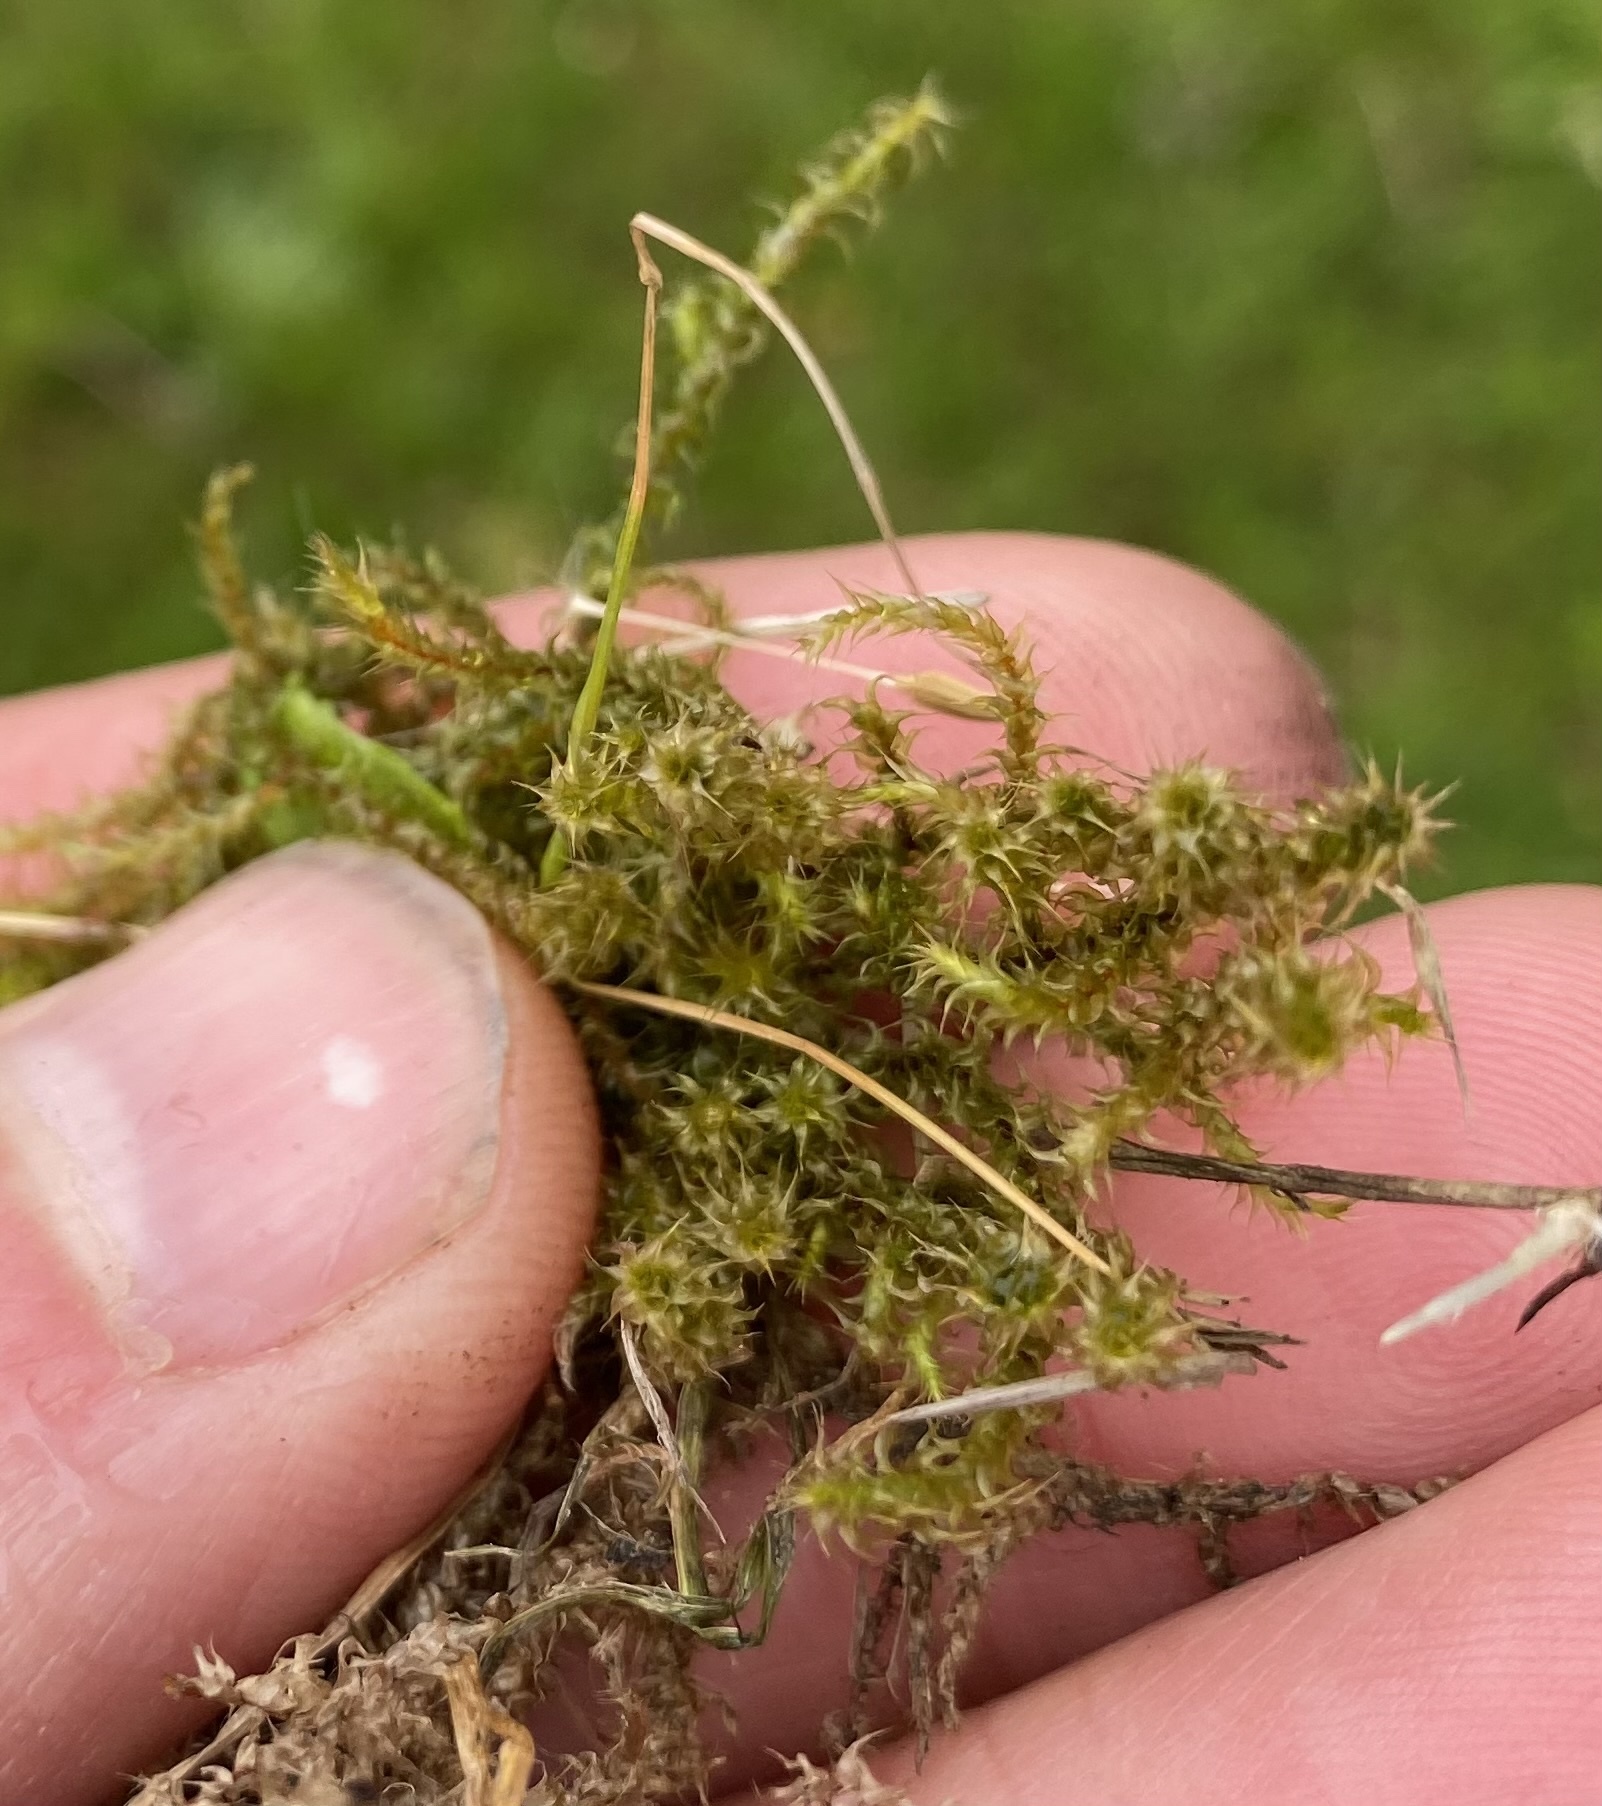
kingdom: Plantae
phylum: Bryophyta
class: Bryopsida
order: Hypnales
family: Hylocomiaceae
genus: Rhytidiadelphus
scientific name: Rhytidiadelphus squarrosus
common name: Springy turf-moss
